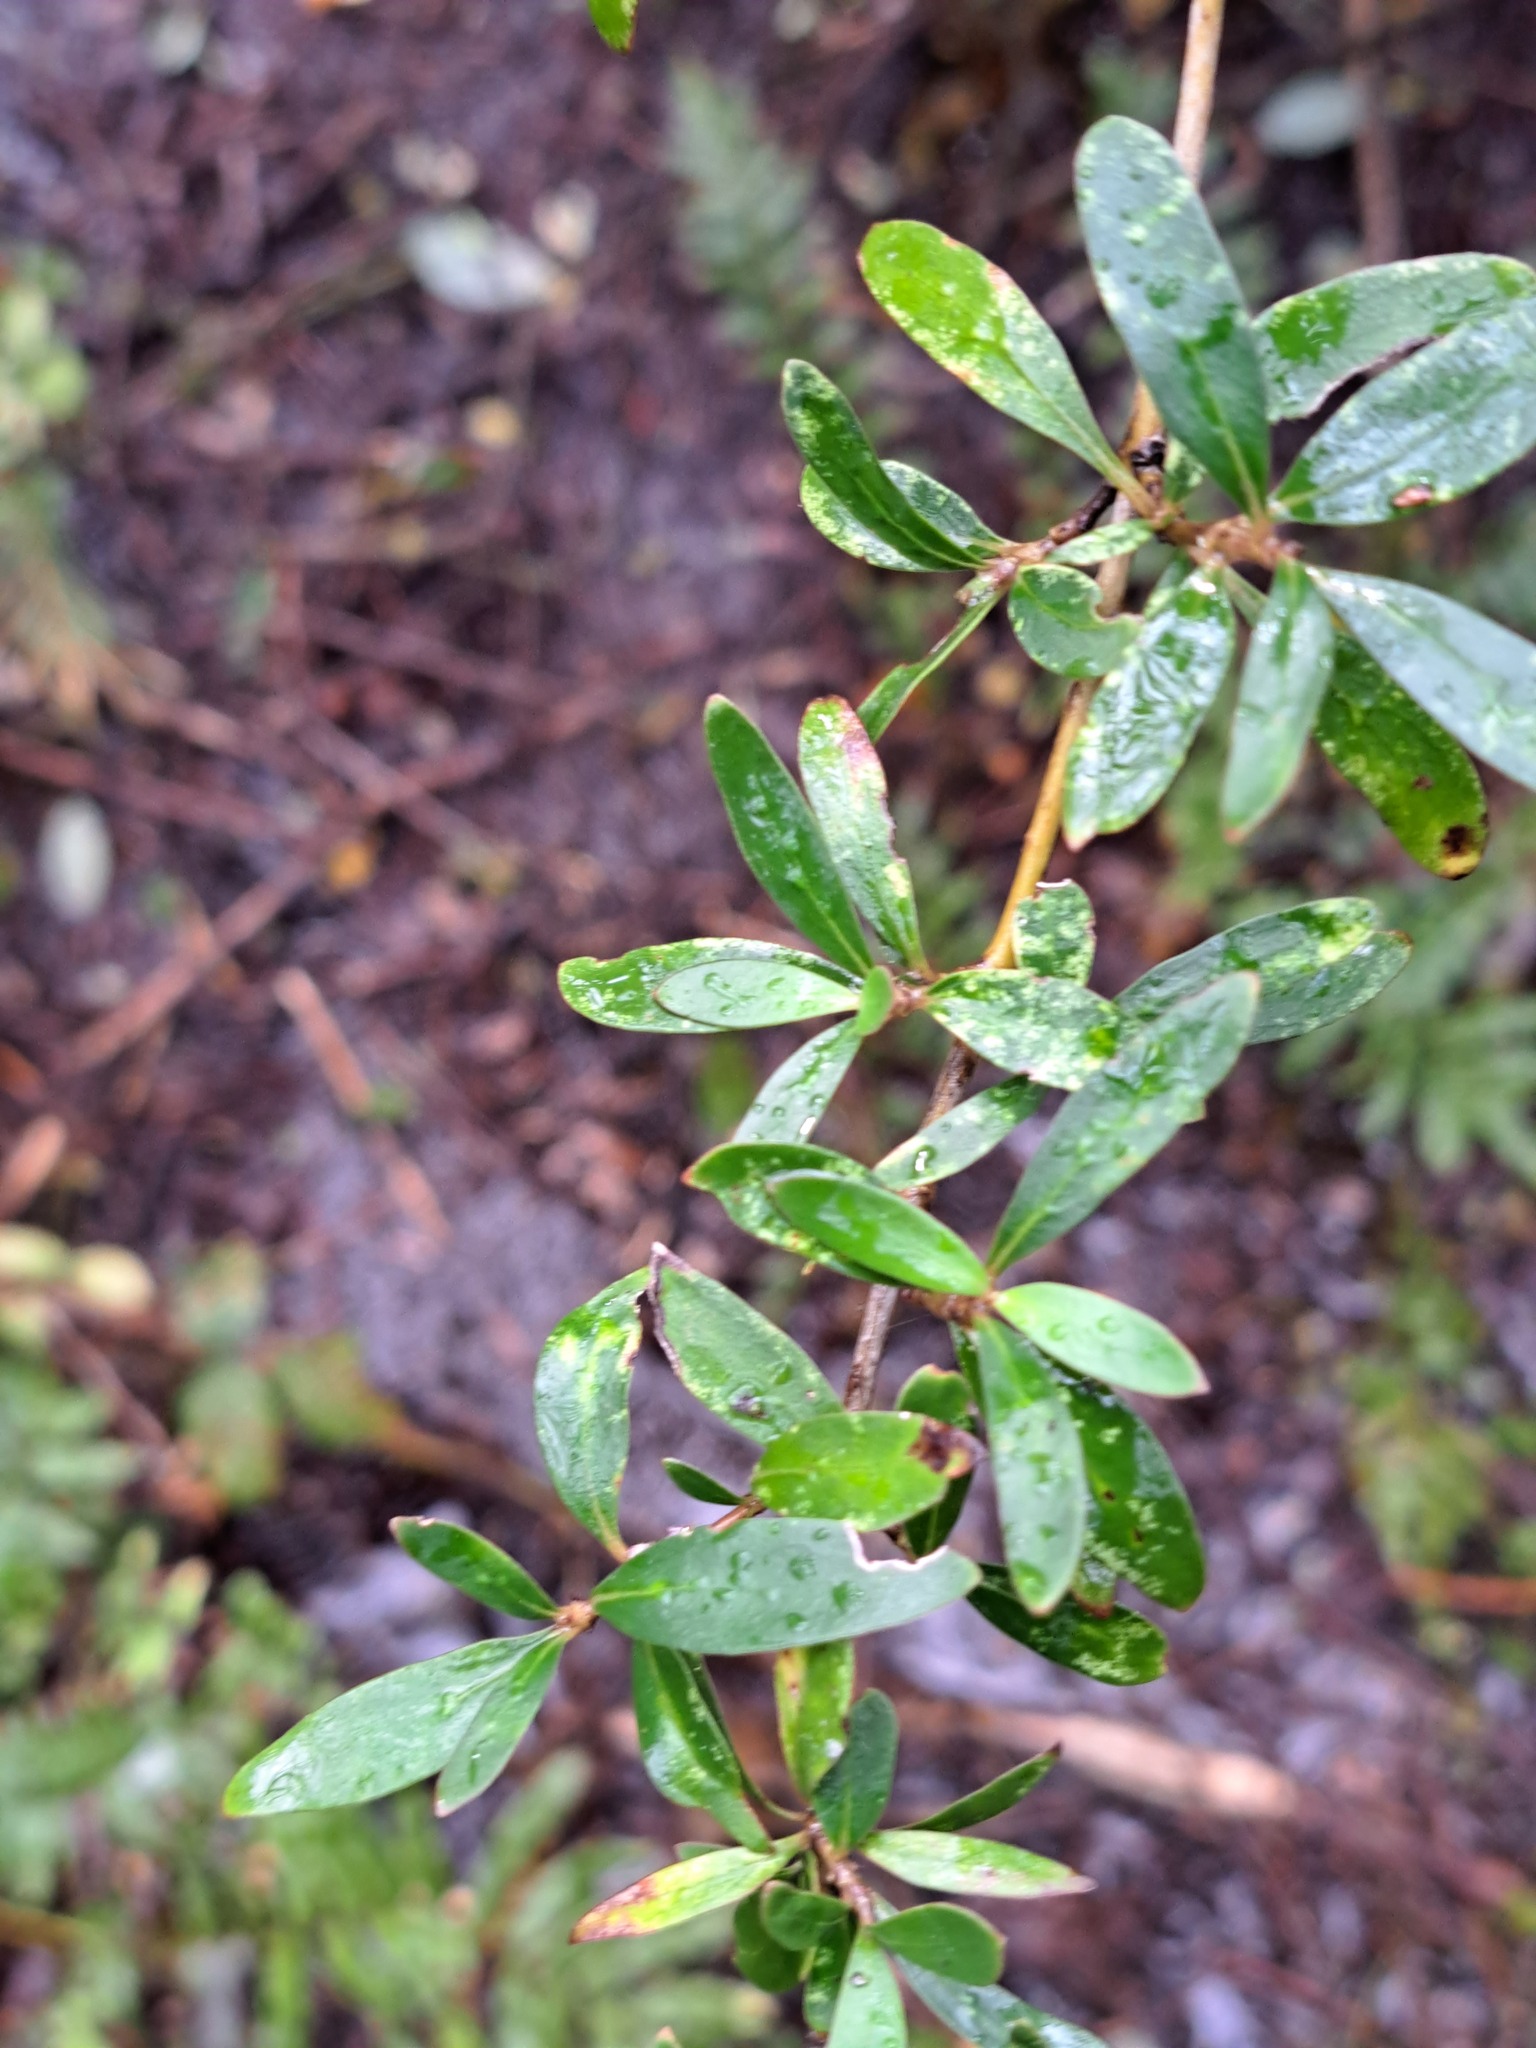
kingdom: Plantae
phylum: Tracheophyta
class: Magnoliopsida
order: Gentianales
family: Rubiaceae
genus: Coprosma
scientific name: Coprosma cunninghamii
